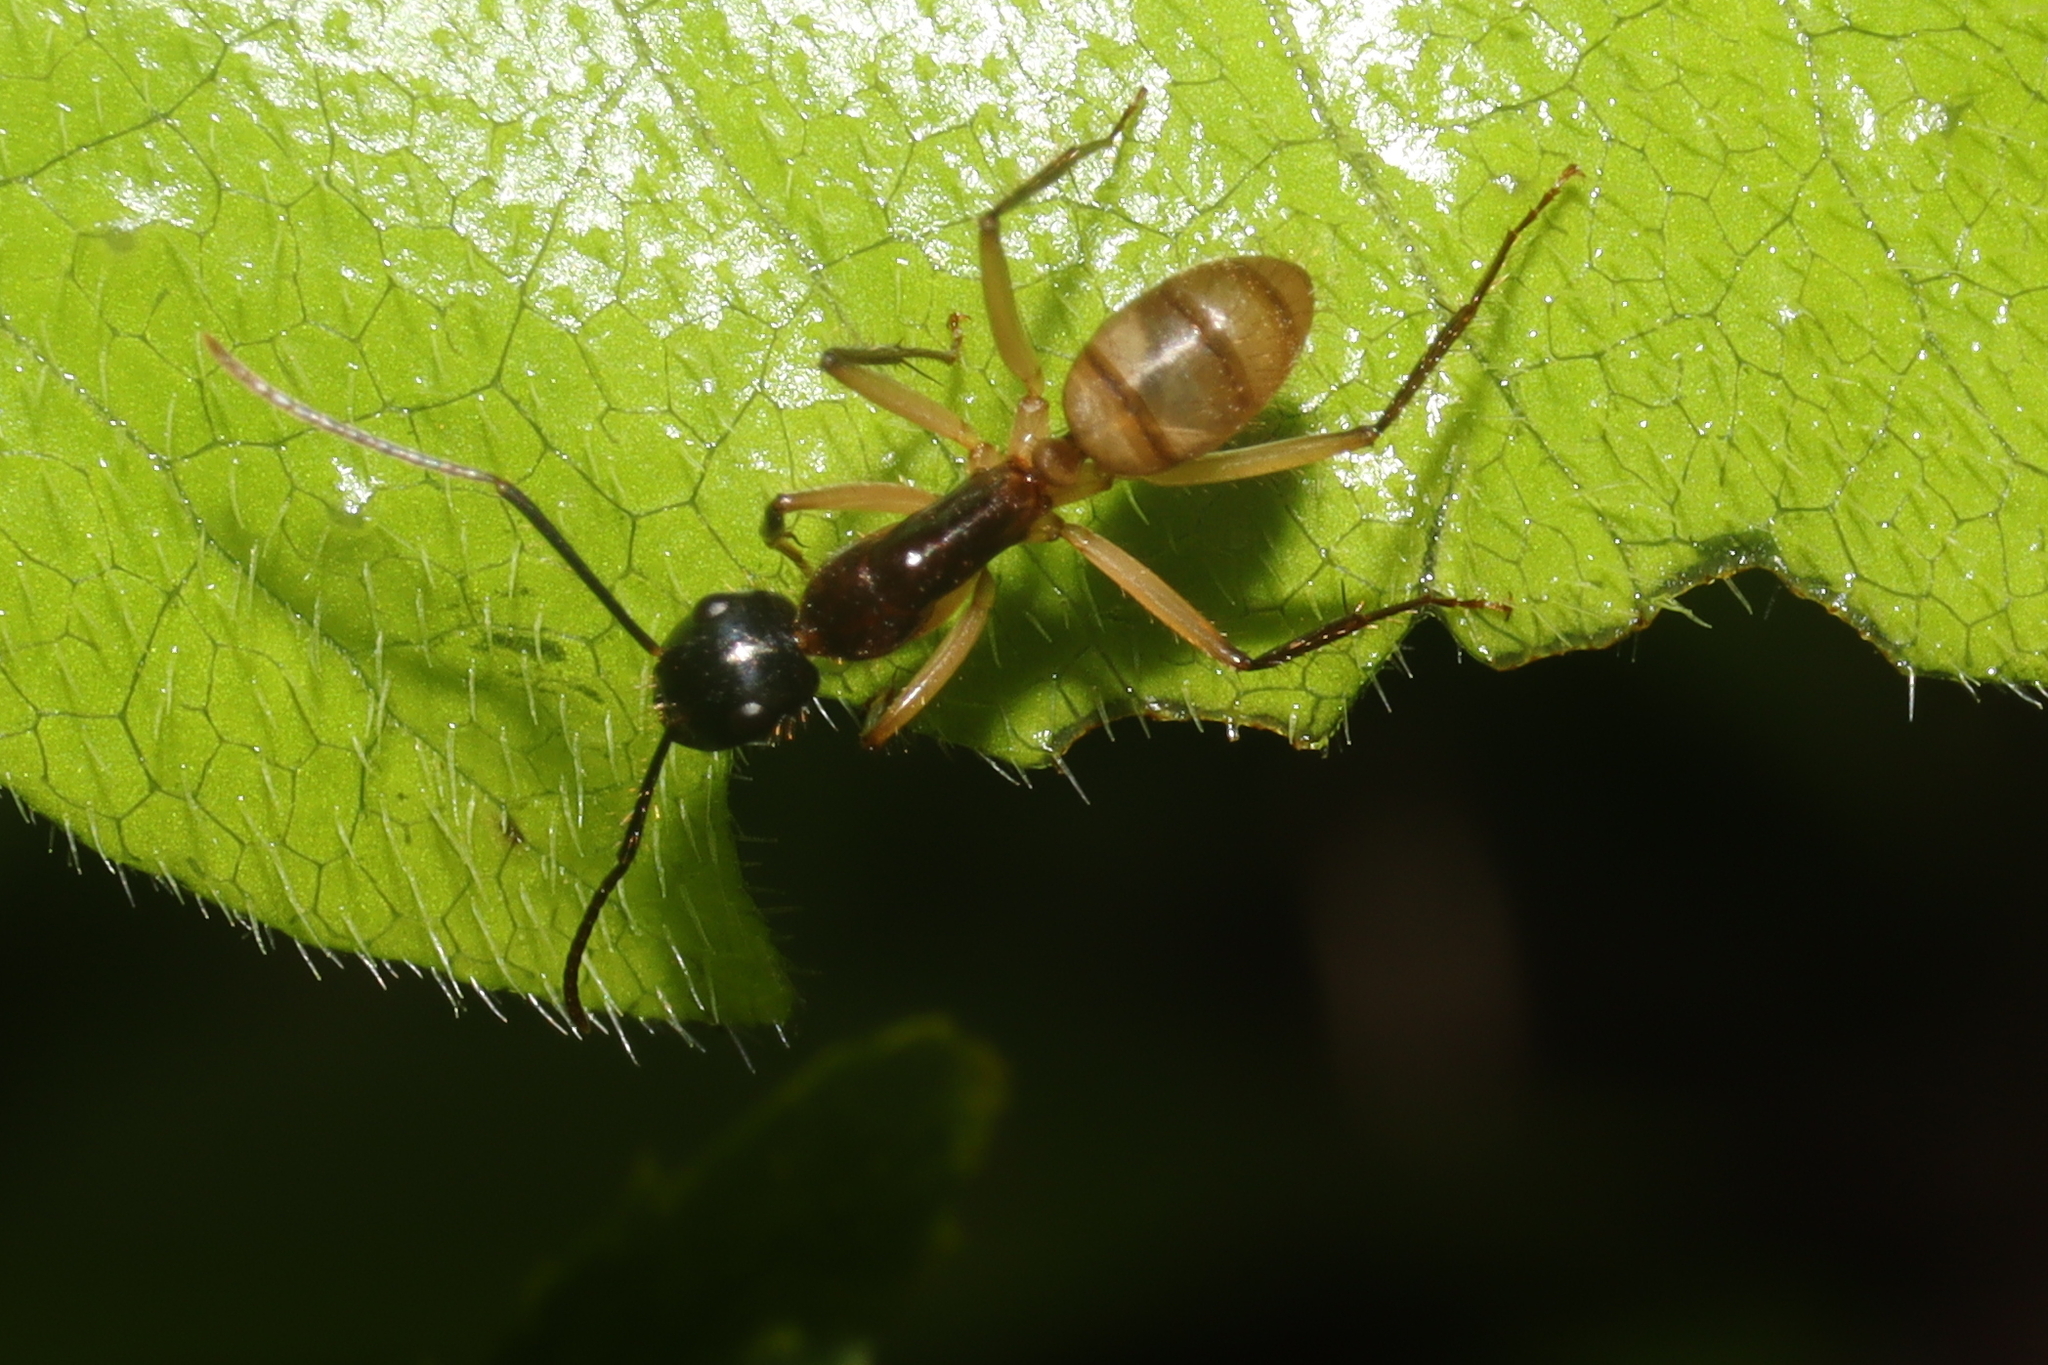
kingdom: Animalia
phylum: Arthropoda
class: Insecta
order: Hymenoptera
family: Formicidae
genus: Camponotus
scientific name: Camponotus atriceps
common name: Florida carpenter ant
